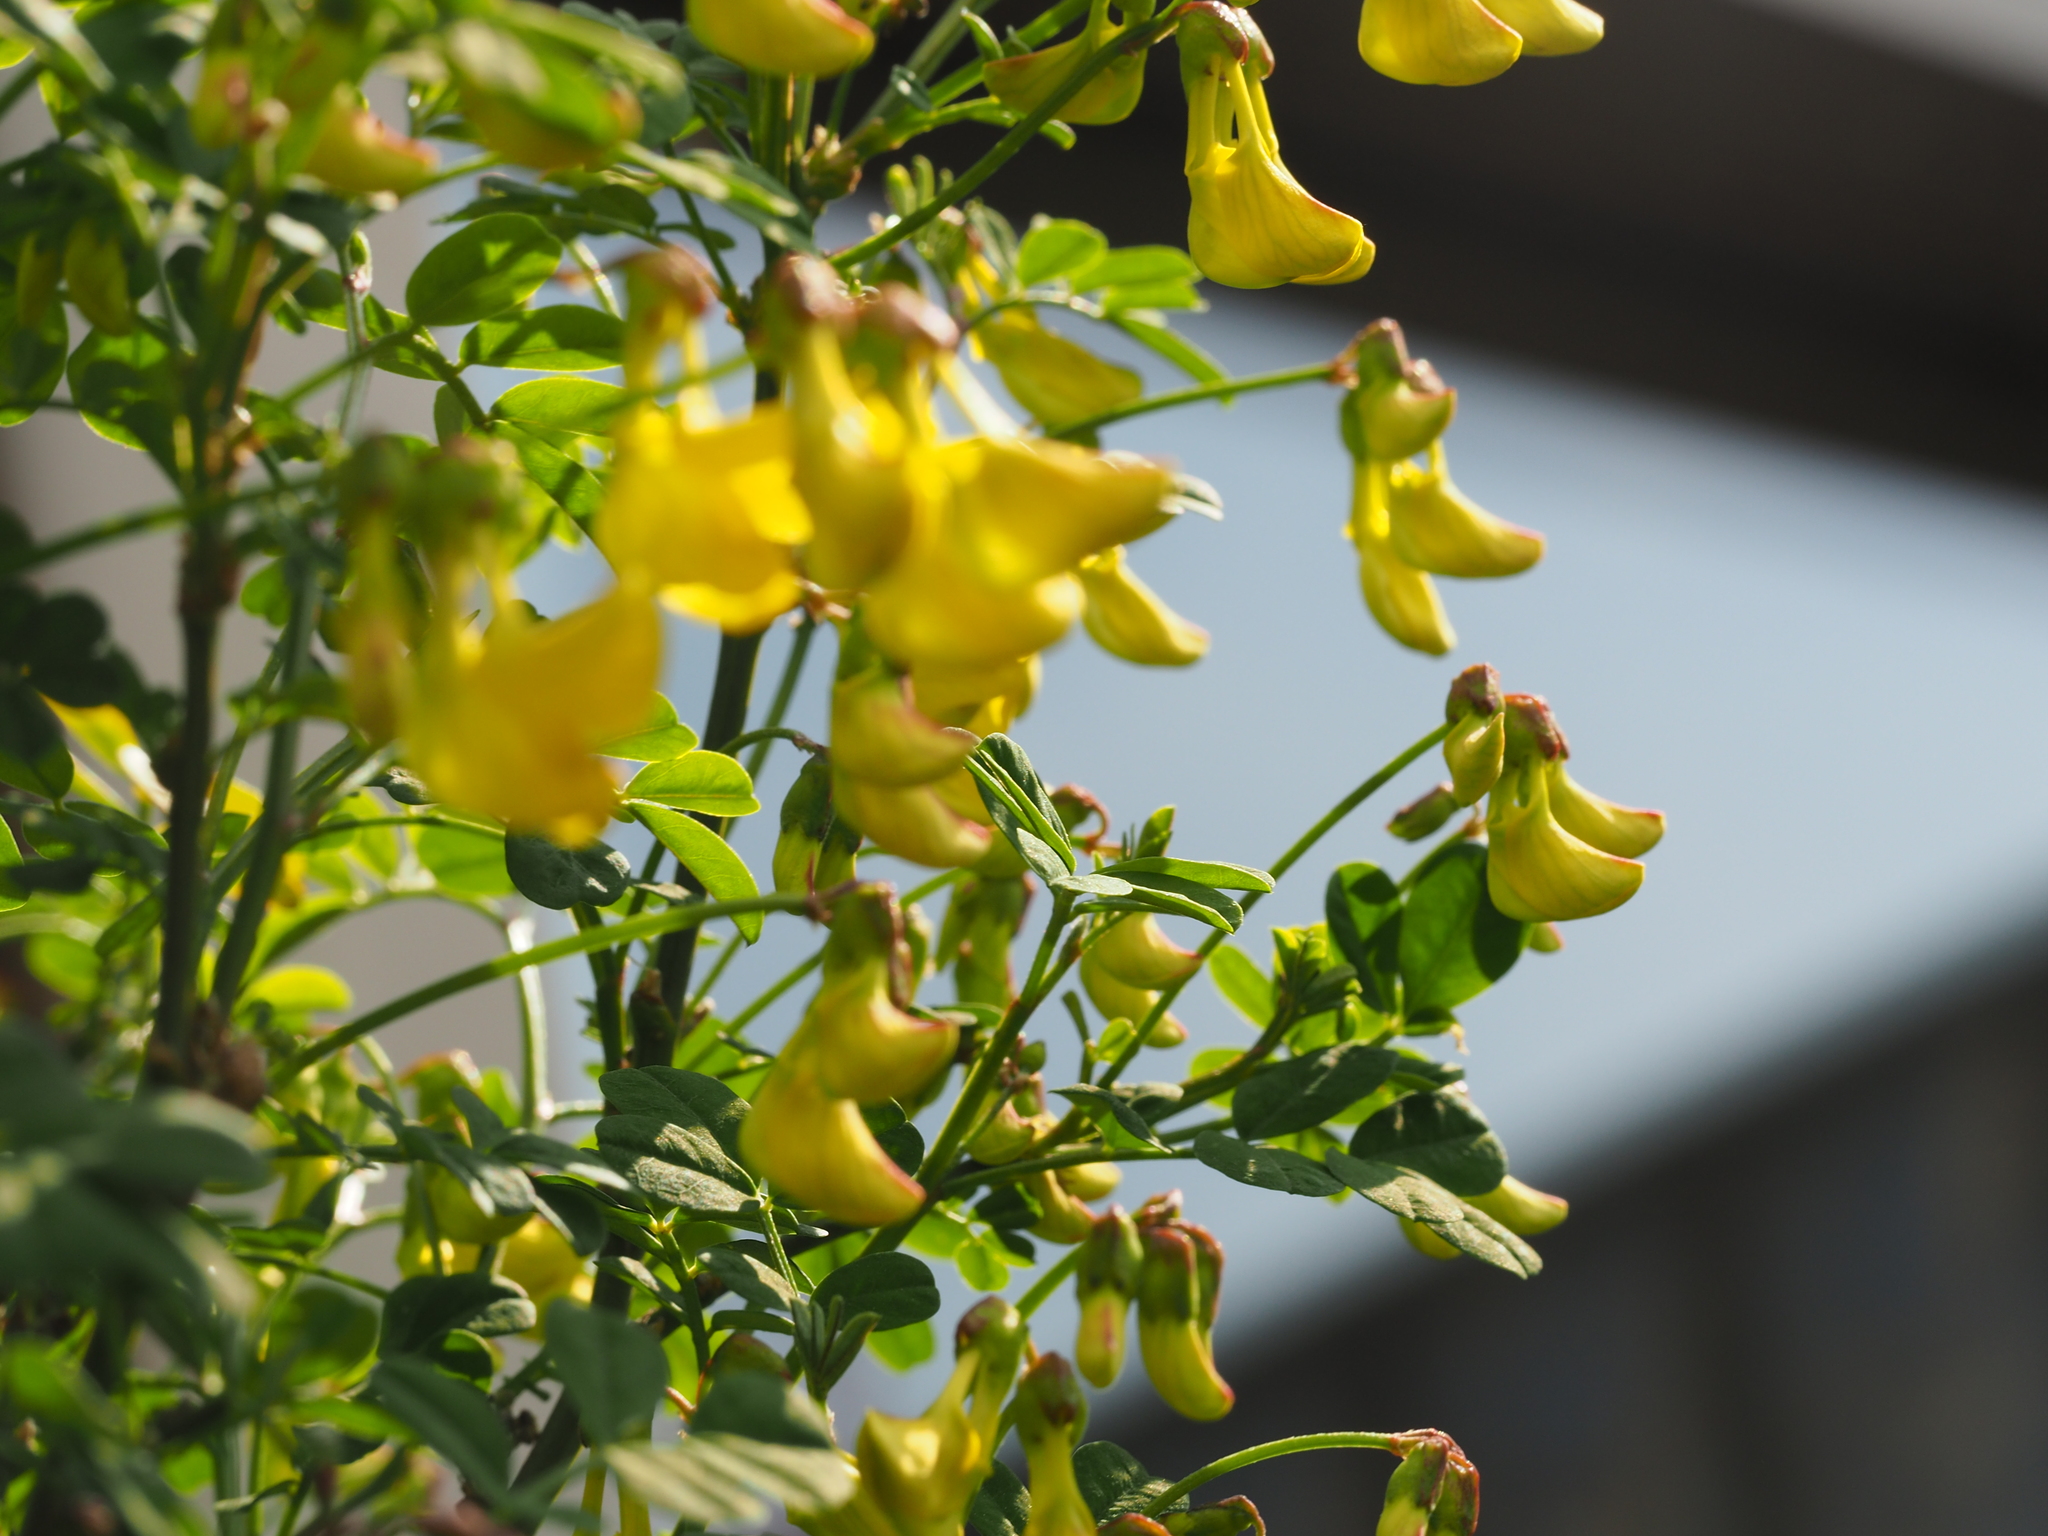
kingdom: Plantae
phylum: Tracheophyta
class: Magnoliopsida
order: Fabales
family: Fabaceae
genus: Hippocrepis
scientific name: Hippocrepis emerus
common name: Scorpion senna
